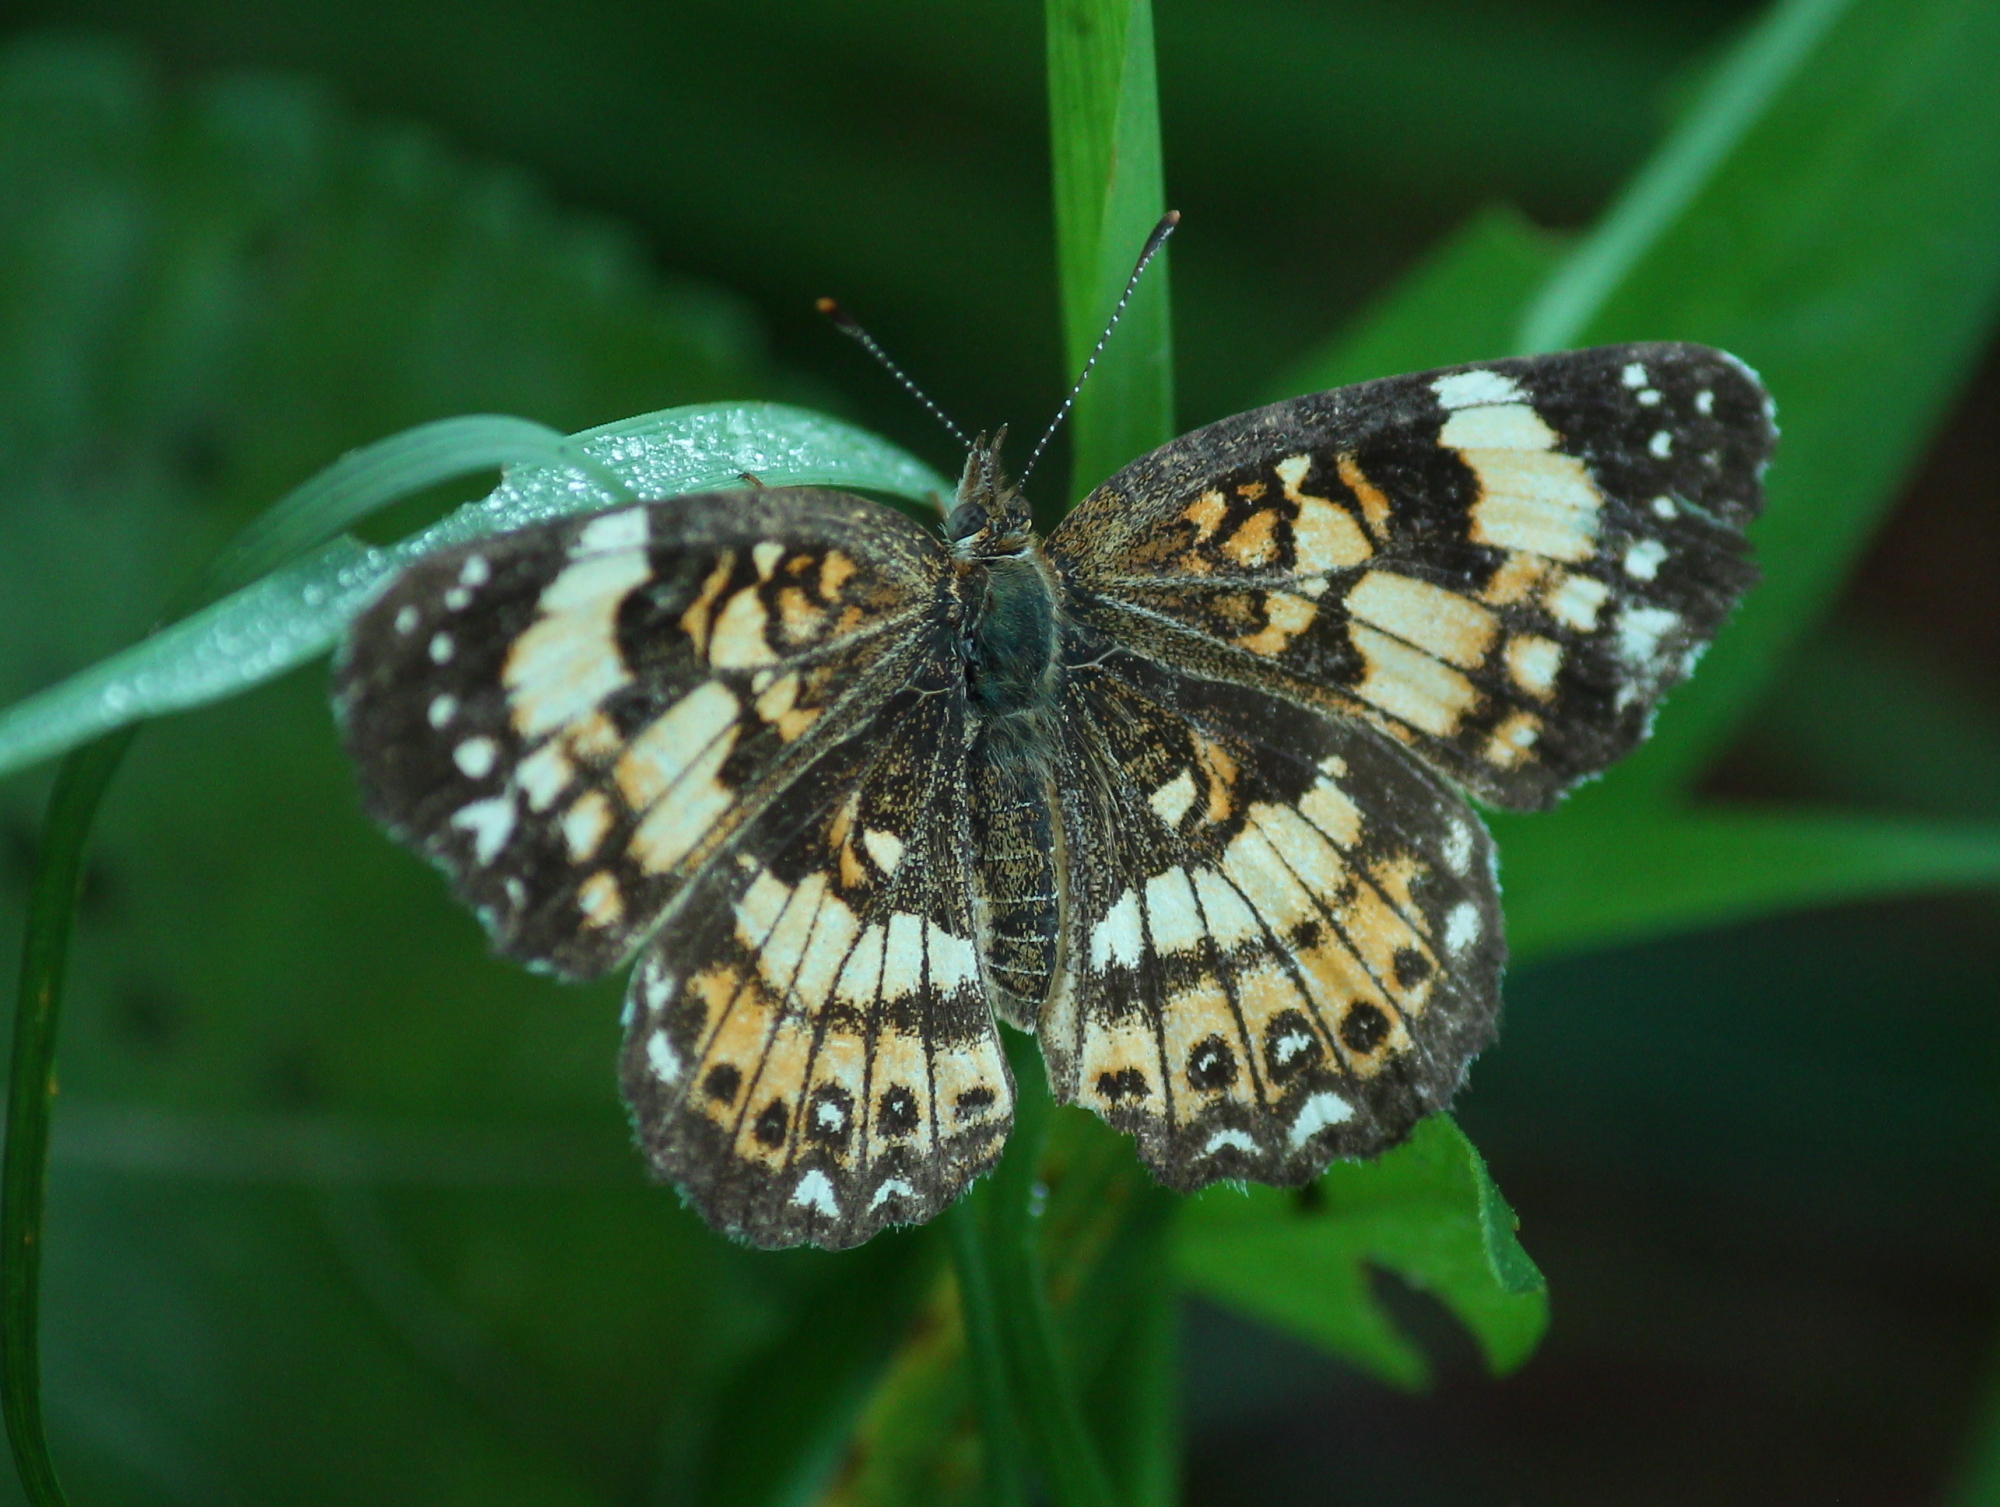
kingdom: Animalia
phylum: Arthropoda
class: Insecta
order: Lepidoptera
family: Nymphalidae
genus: Chlosyne
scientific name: Chlosyne nycteis
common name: Silvery checkerspot
